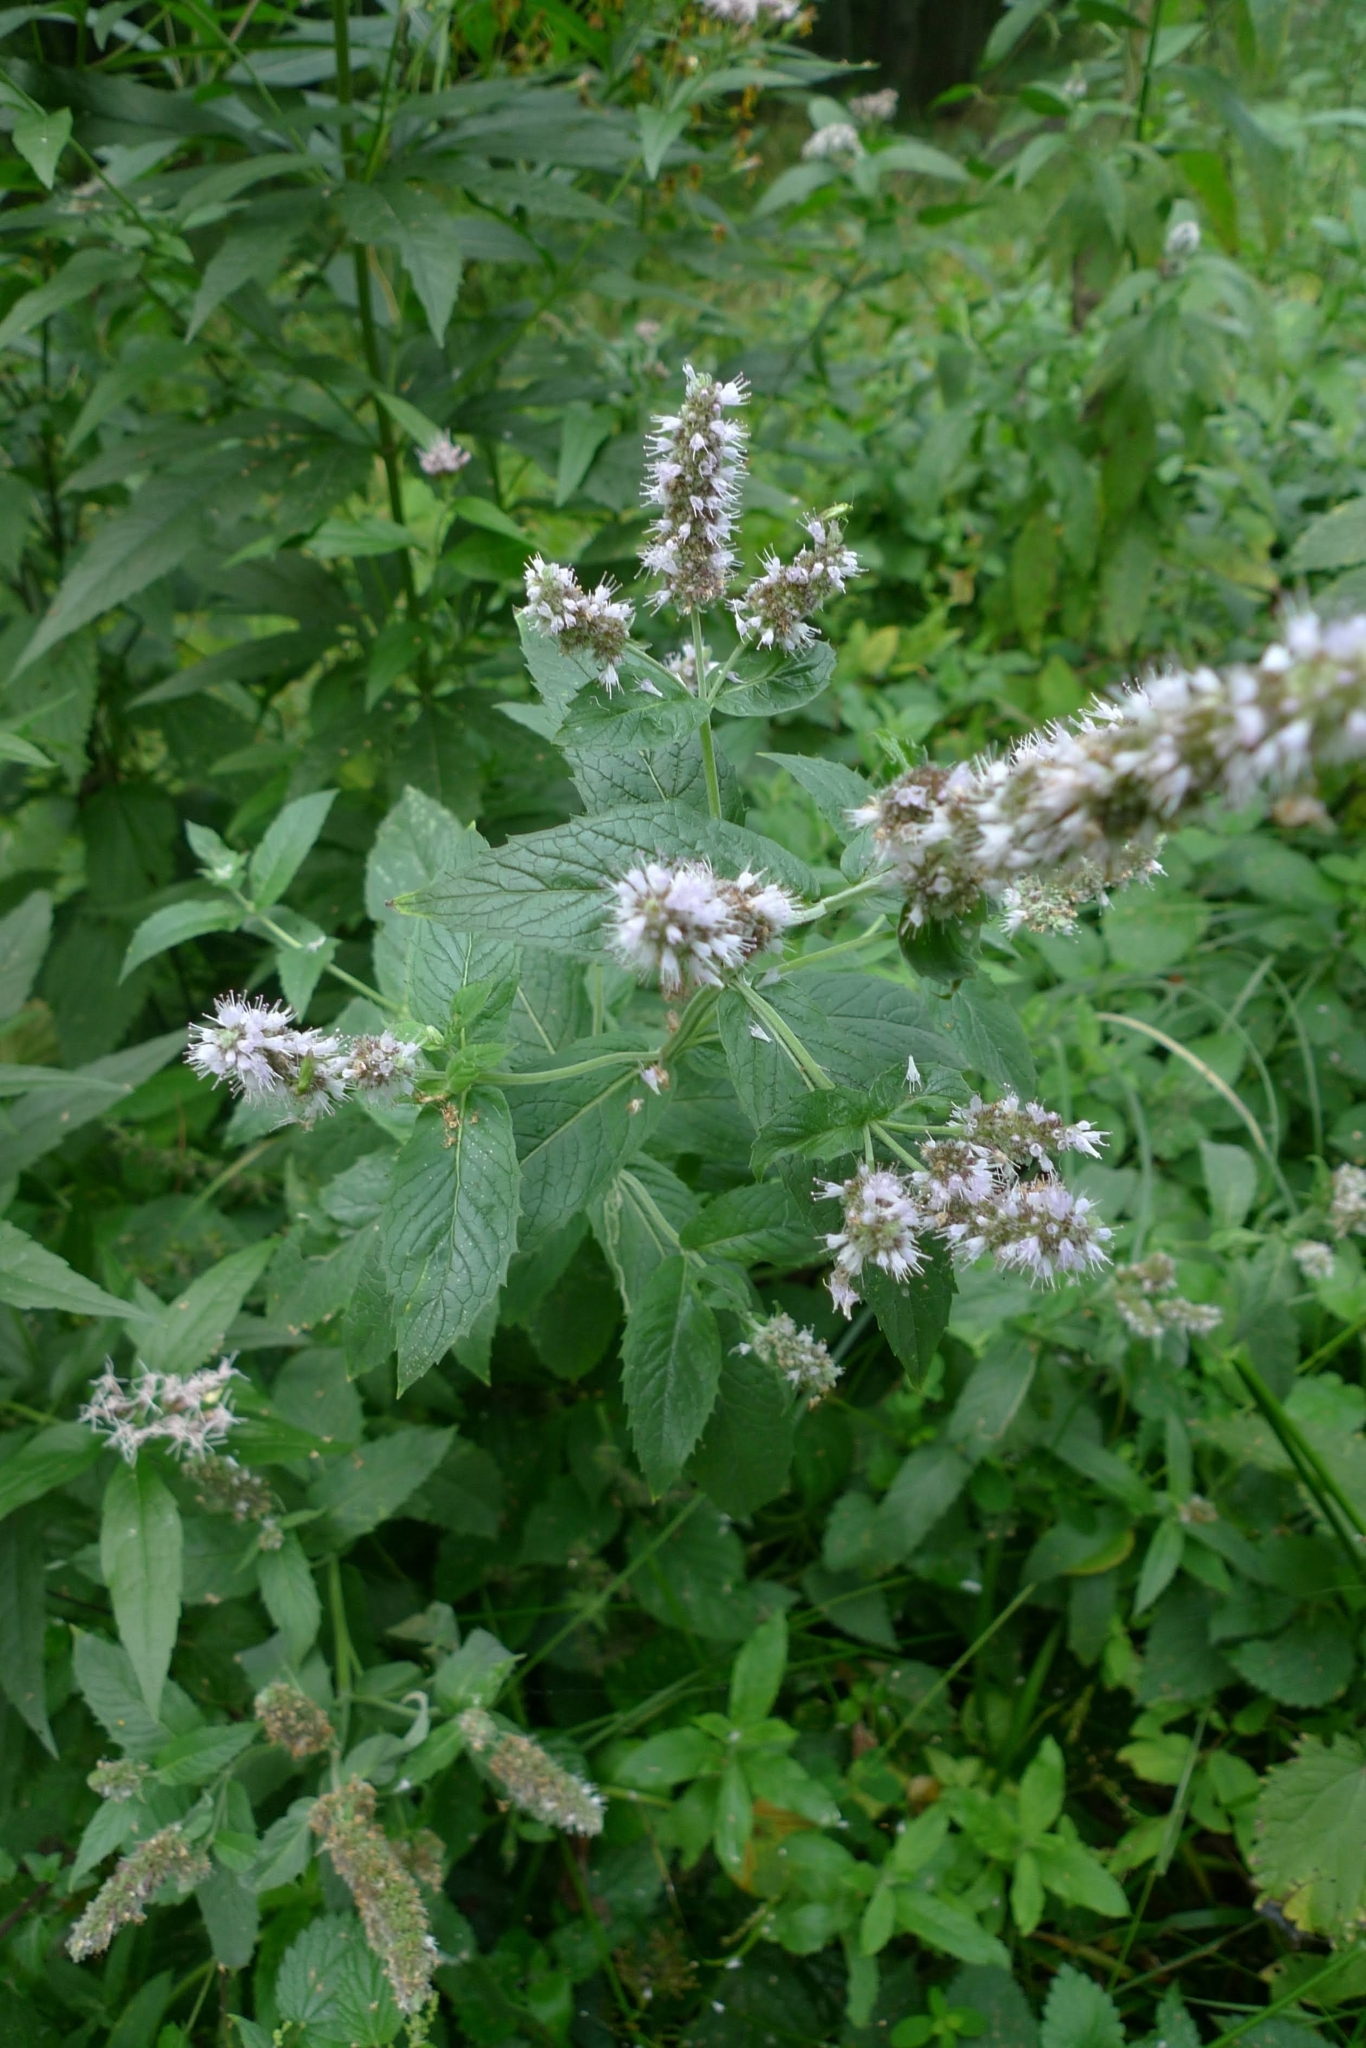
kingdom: Plantae
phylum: Tracheophyta
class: Magnoliopsida
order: Lamiales
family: Lamiaceae
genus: Mentha
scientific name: Mentha longifolia
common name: Horse mint
